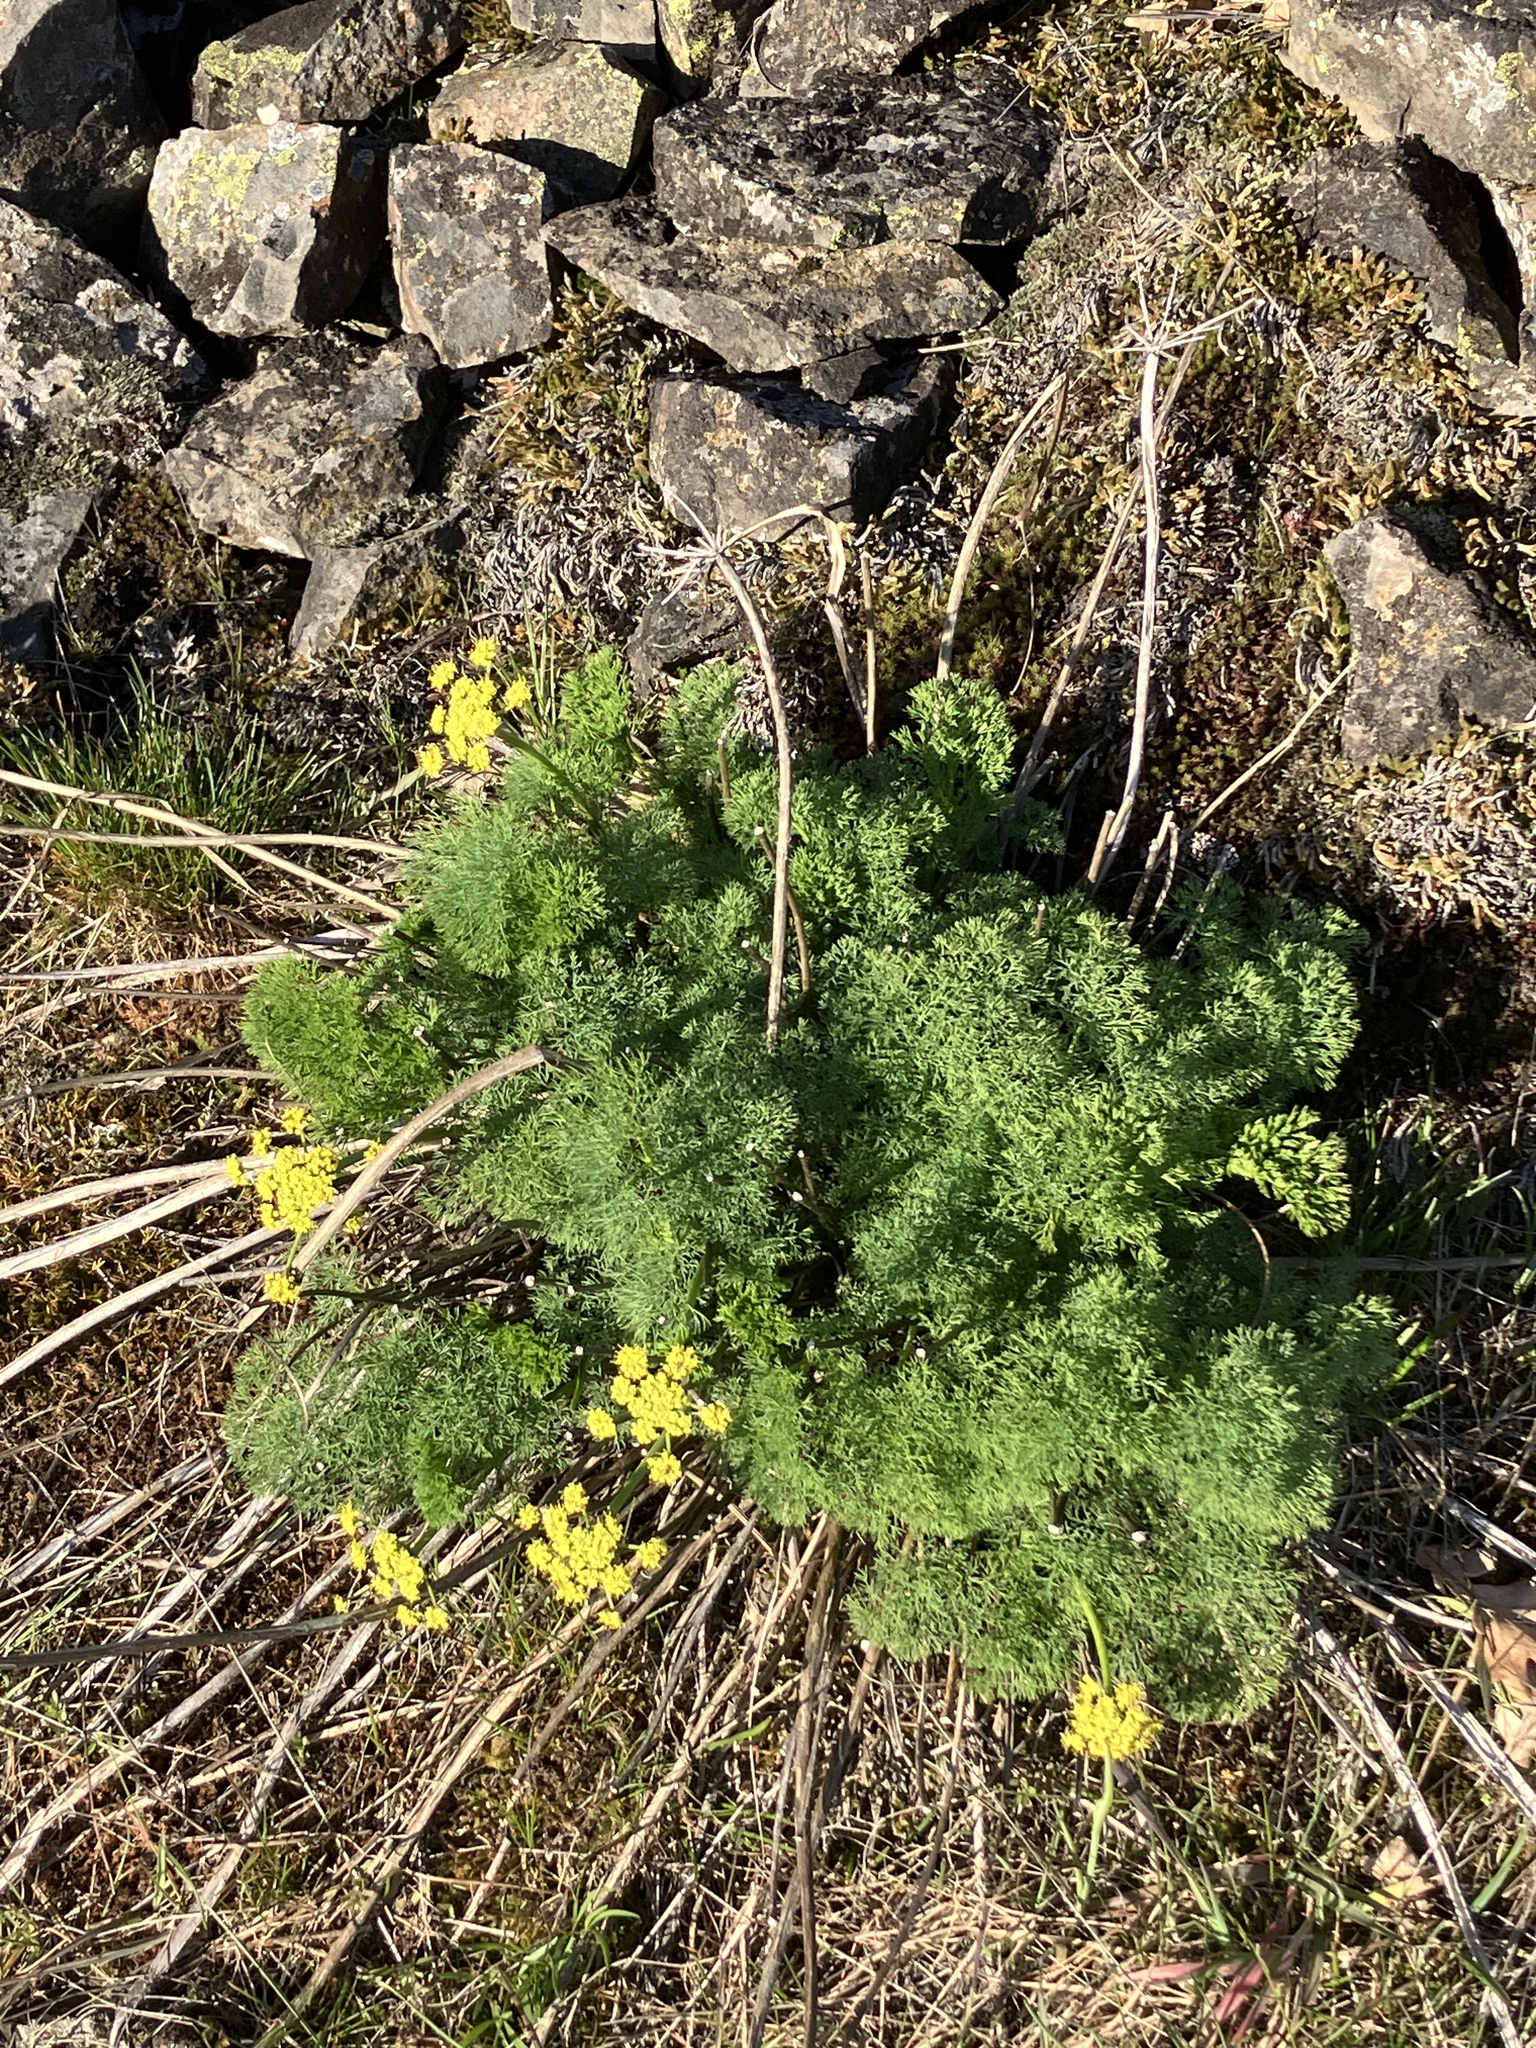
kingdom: Plantae
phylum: Tracheophyta
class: Magnoliopsida
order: Apiales
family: Apiaceae
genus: Lomatium
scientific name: Lomatium klickitatense
